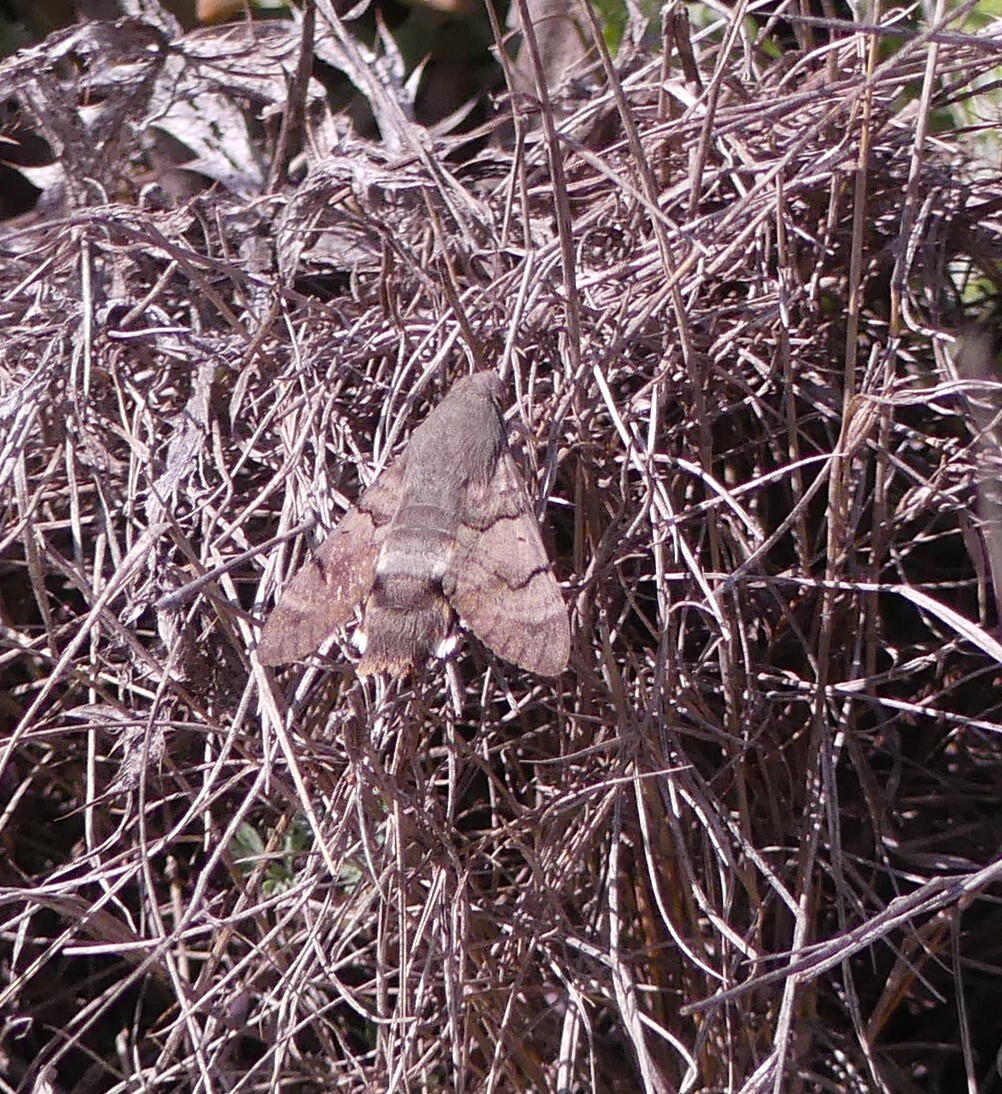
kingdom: Animalia
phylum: Arthropoda
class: Insecta
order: Lepidoptera
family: Sphingidae
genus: Macroglossum
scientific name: Macroglossum stellatarum
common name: Humming-bird hawk-moth
